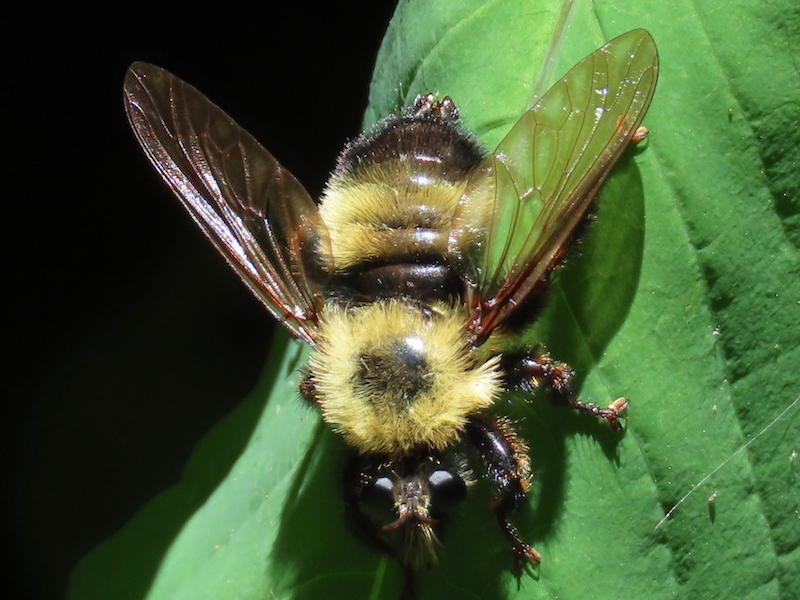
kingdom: Animalia
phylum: Arthropoda
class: Insecta
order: Diptera
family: Asilidae
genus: Laphria
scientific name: Laphria thoracica
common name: Bumble bee mimic robber fly
